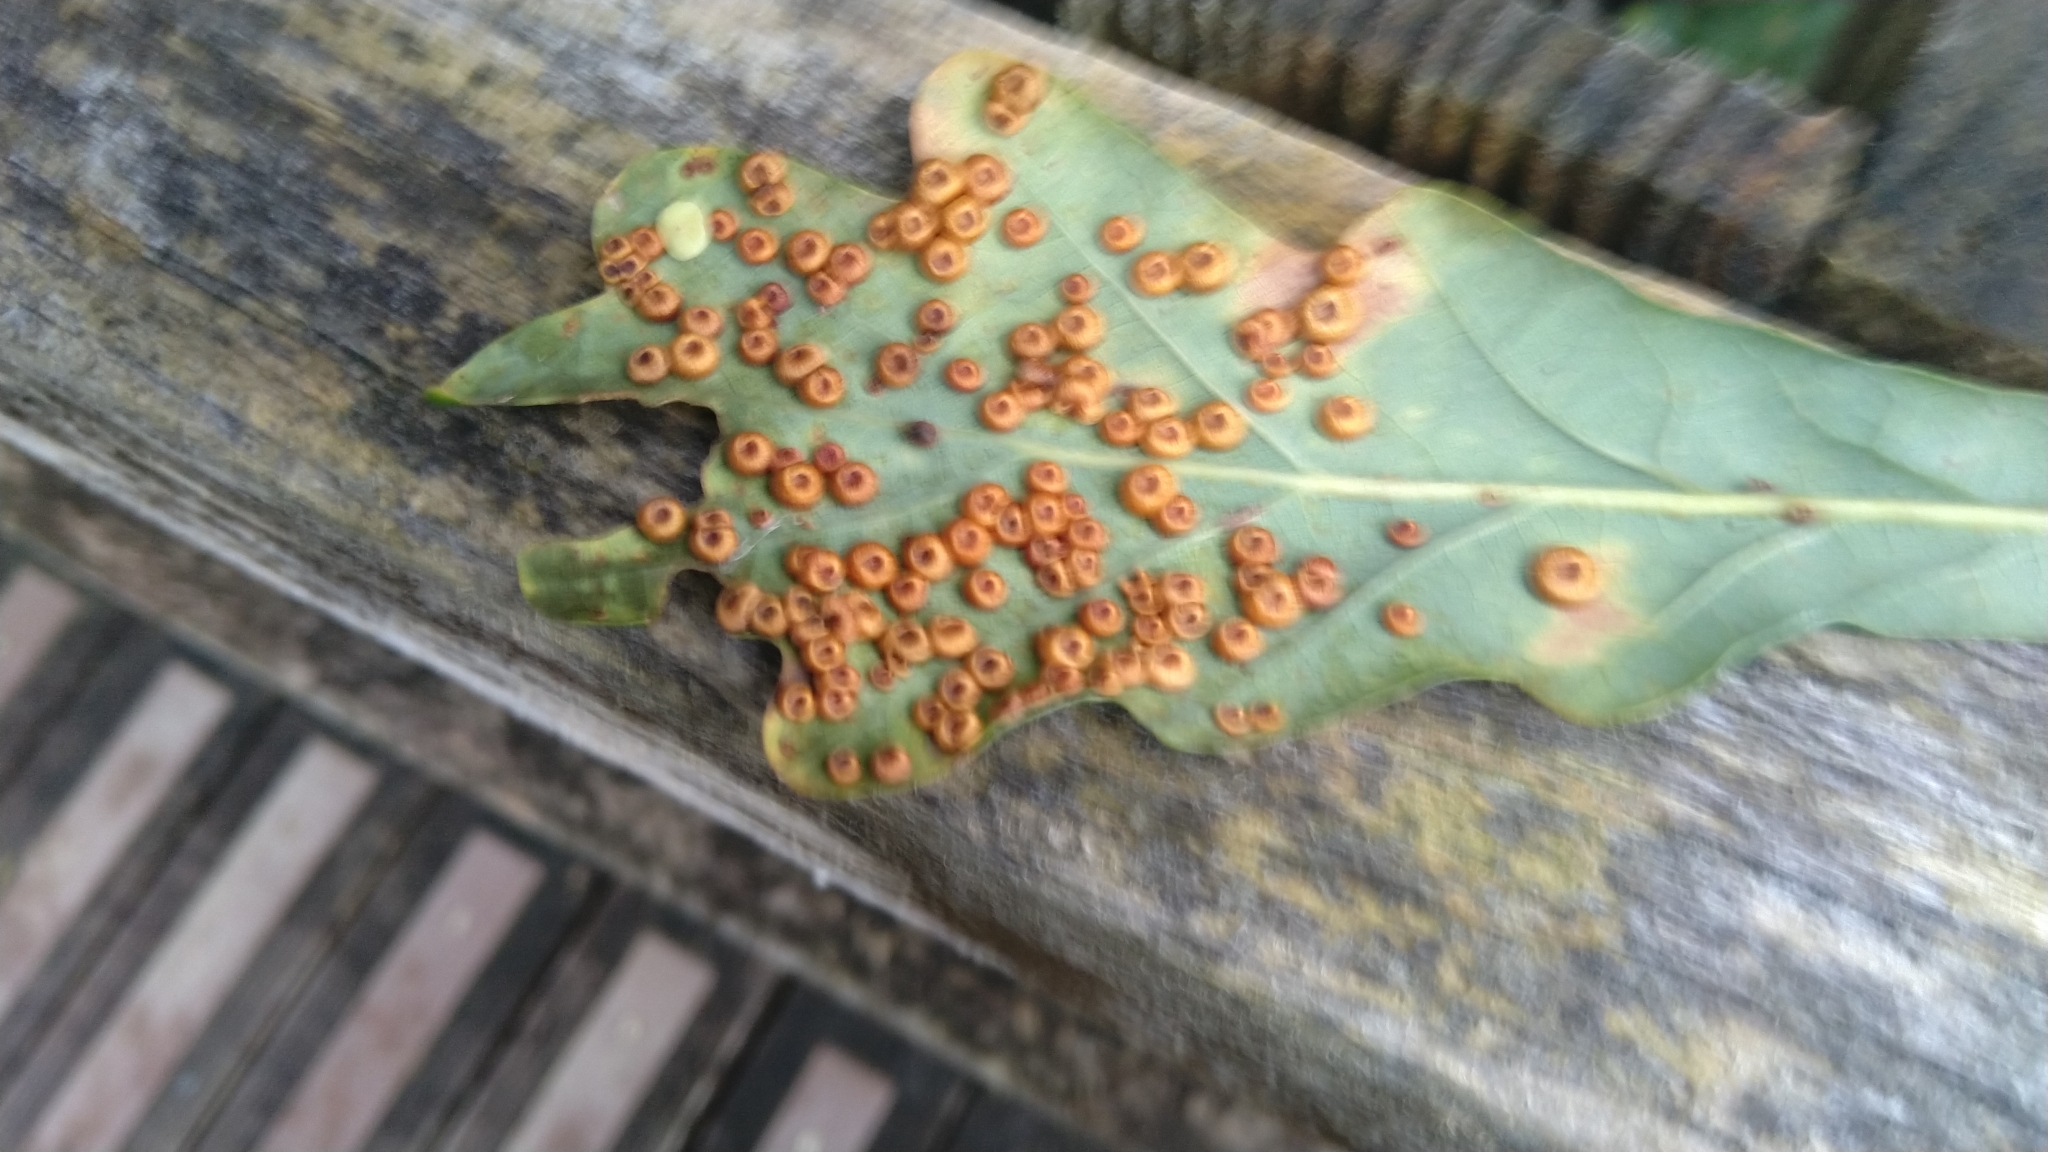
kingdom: Animalia
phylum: Arthropoda
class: Insecta
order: Hymenoptera
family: Cynipidae
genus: Neuroterus
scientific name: Neuroterus numismalis
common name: Silk-button spangle gall
